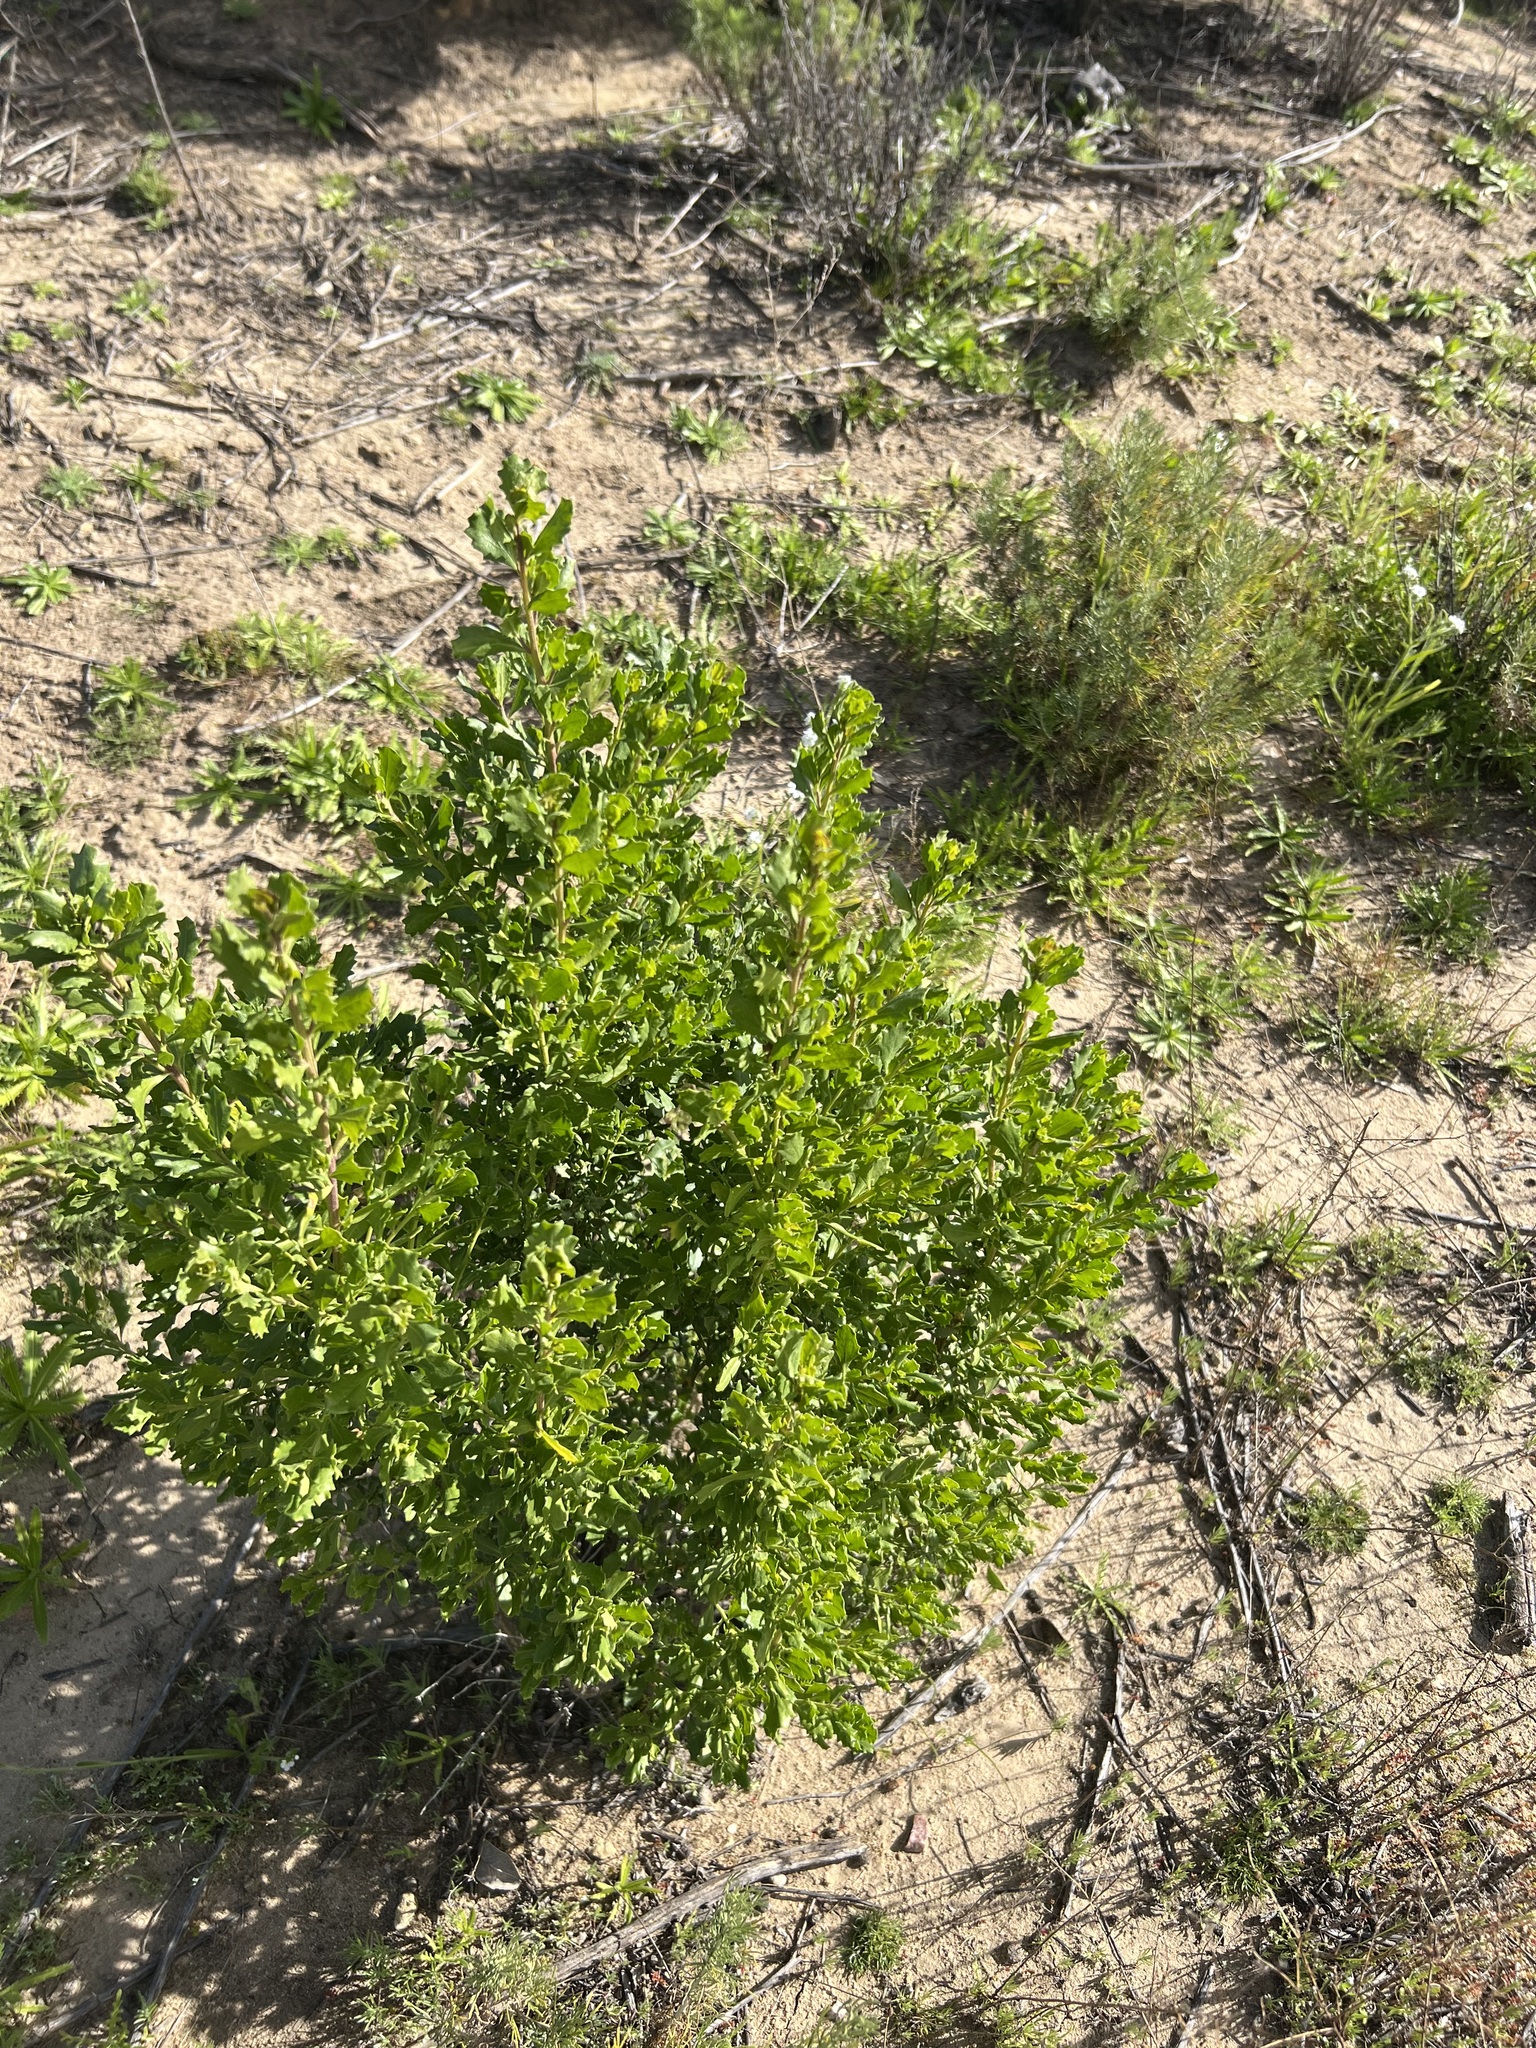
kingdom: Plantae
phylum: Tracheophyta
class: Magnoliopsida
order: Asterales
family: Asteraceae
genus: Baccharis
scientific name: Baccharis pilularis
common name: Coyotebrush
